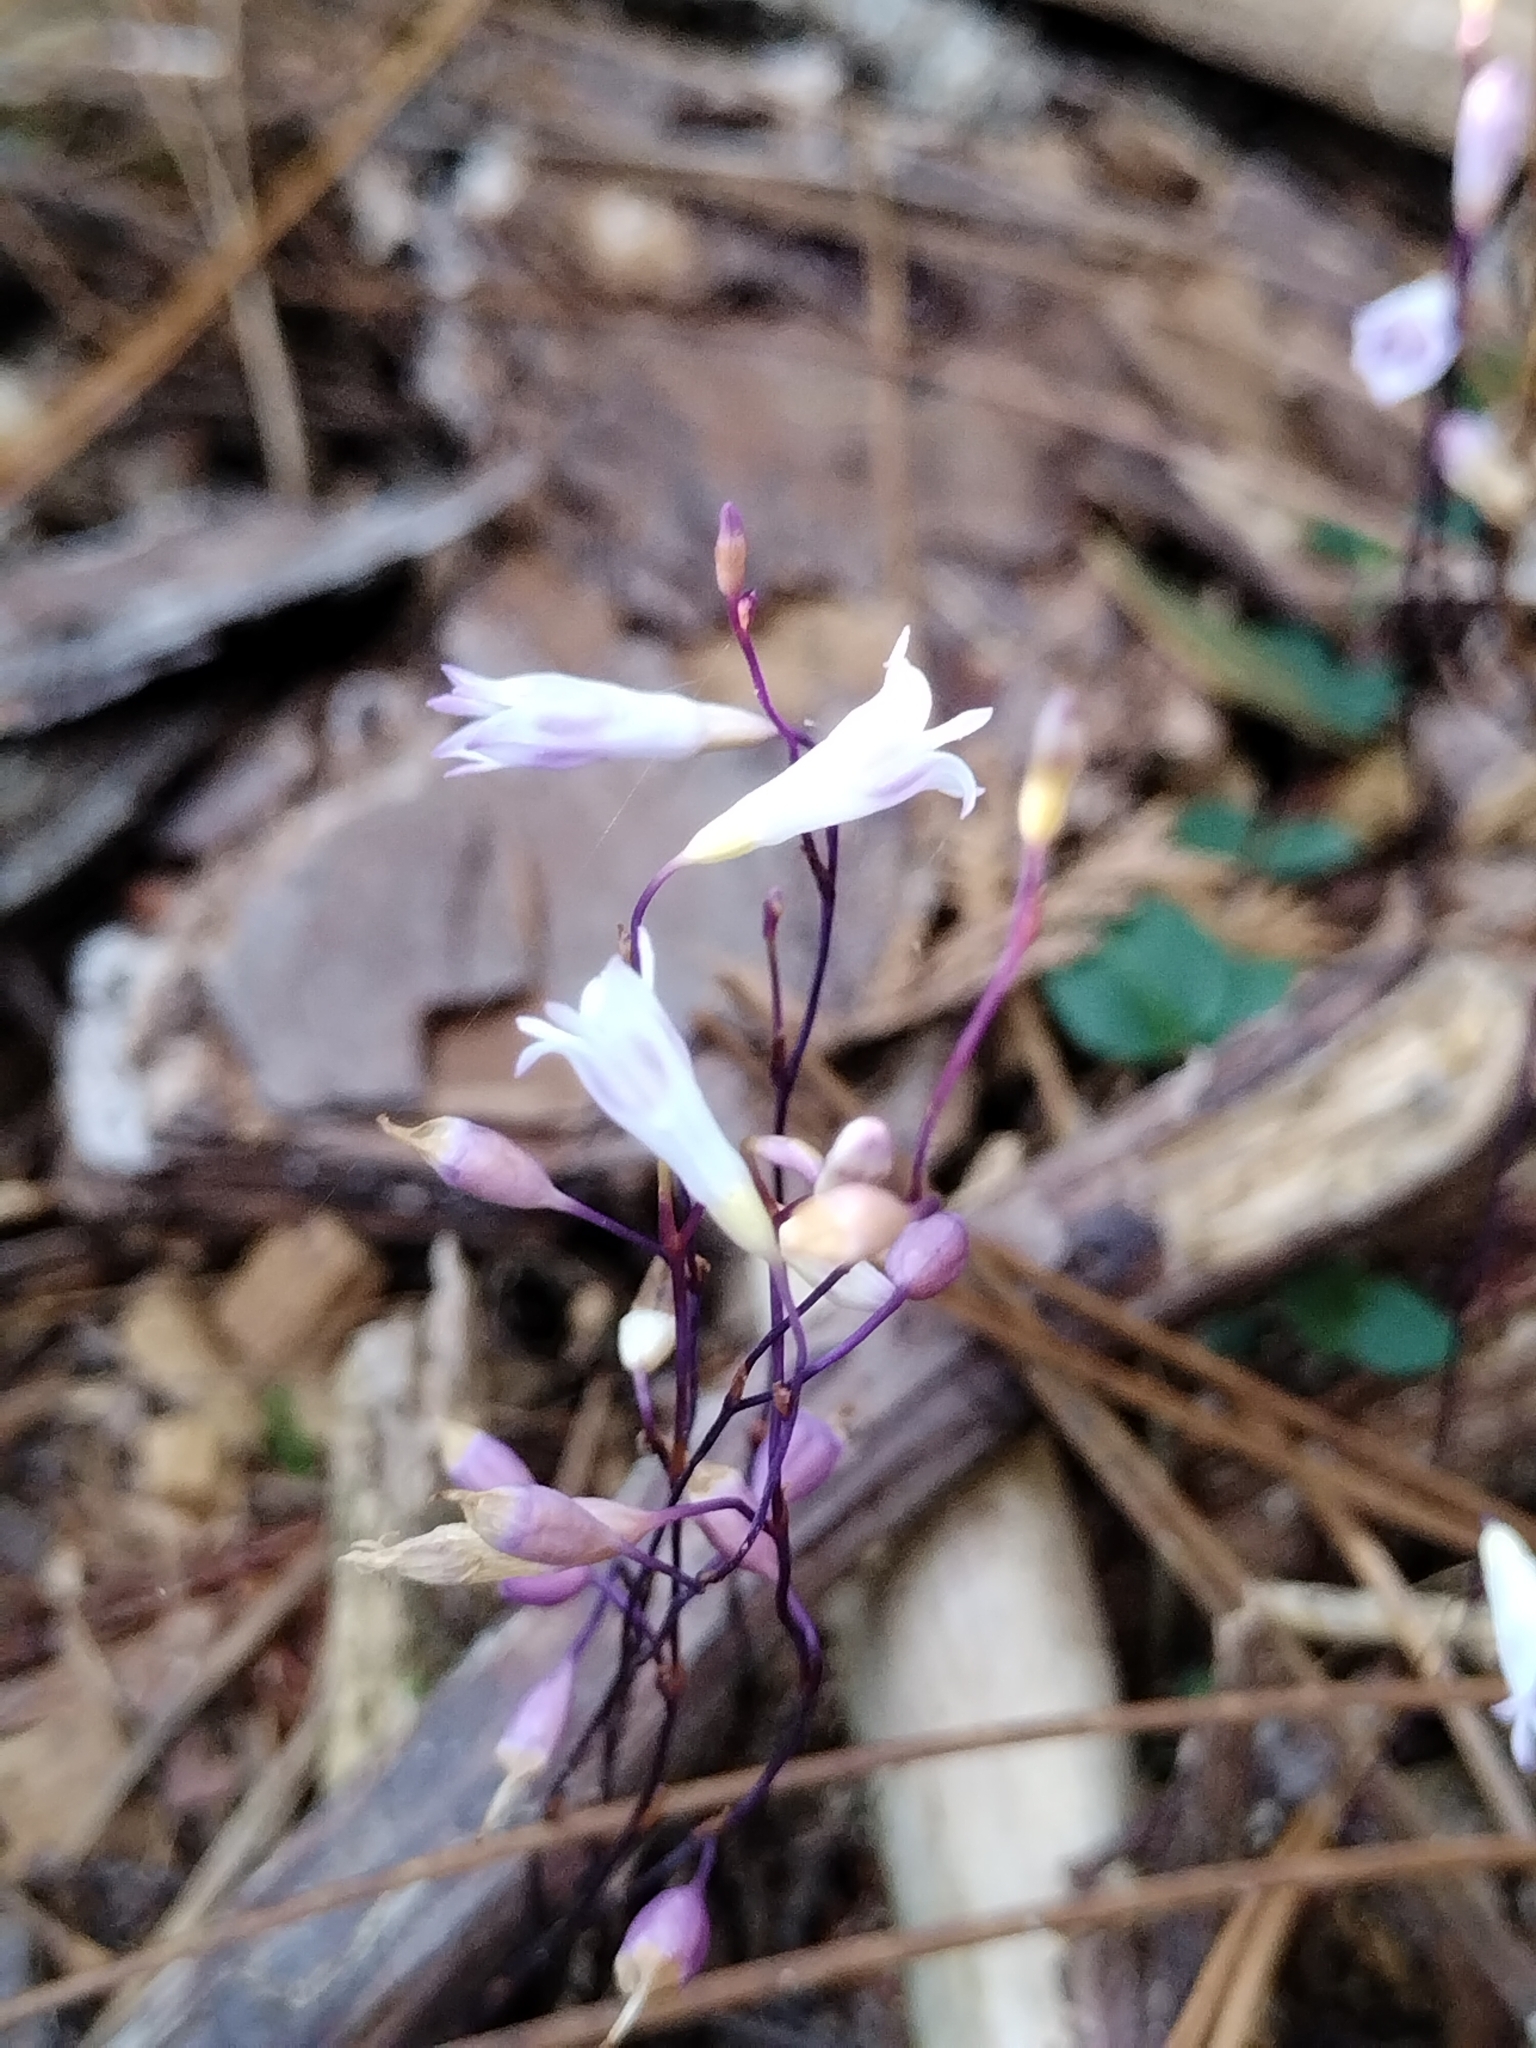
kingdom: Plantae
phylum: Tracheophyta
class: Liliopsida
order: Dioscoreales
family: Burmanniaceae
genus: Apteria
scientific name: Apteria aphylla
